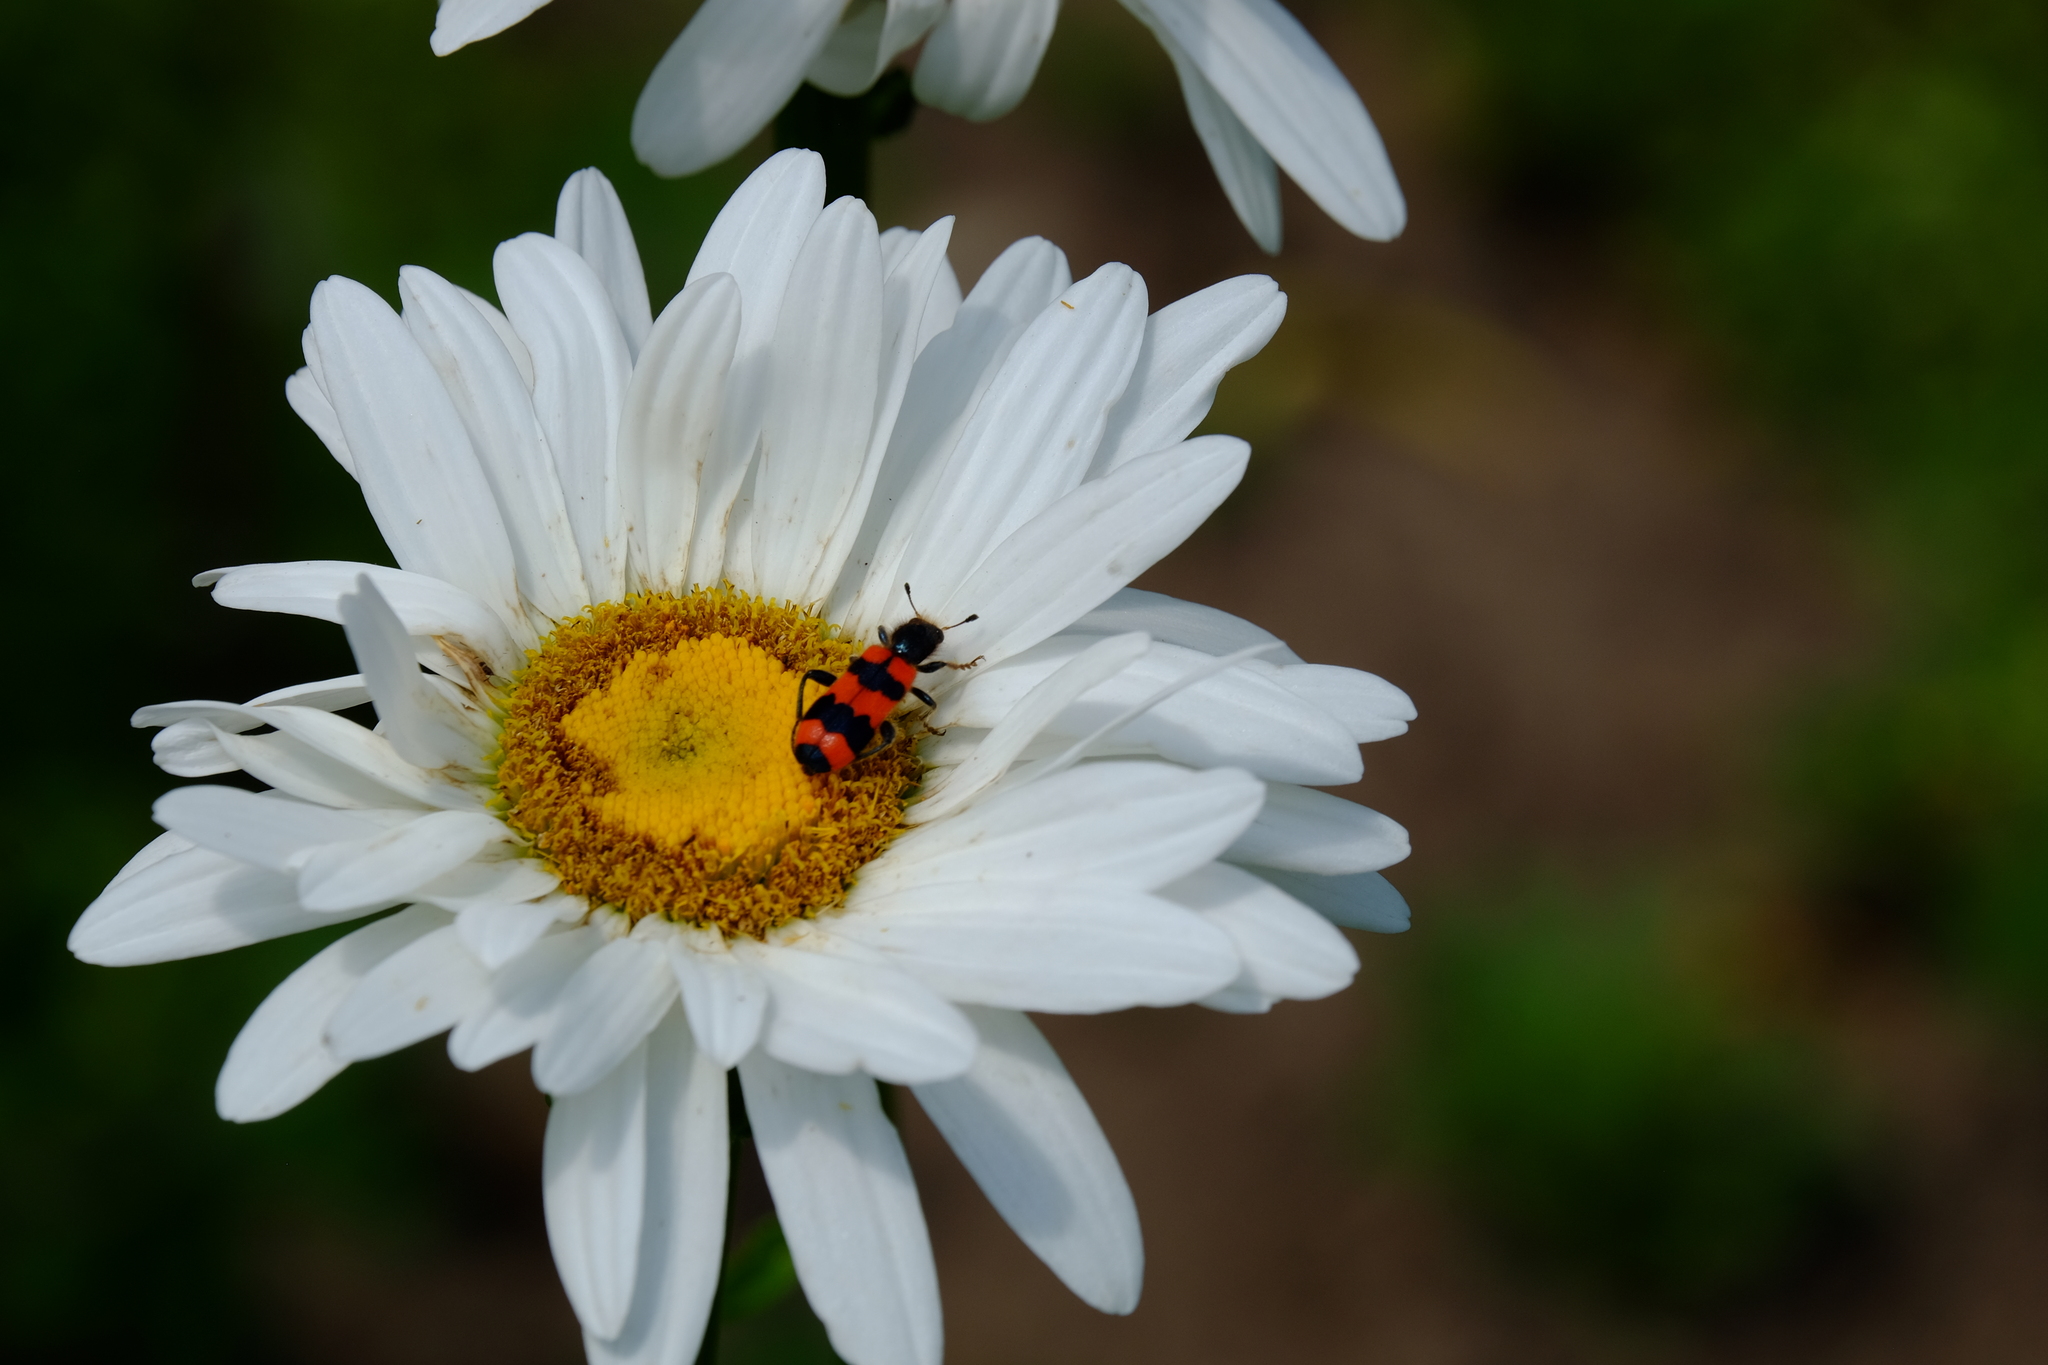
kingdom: Animalia
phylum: Arthropoda
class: Insecta
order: Coleoptera
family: Cleridae
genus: Trichodes
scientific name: Trichodes apiarius
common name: Bee-eating beetle
